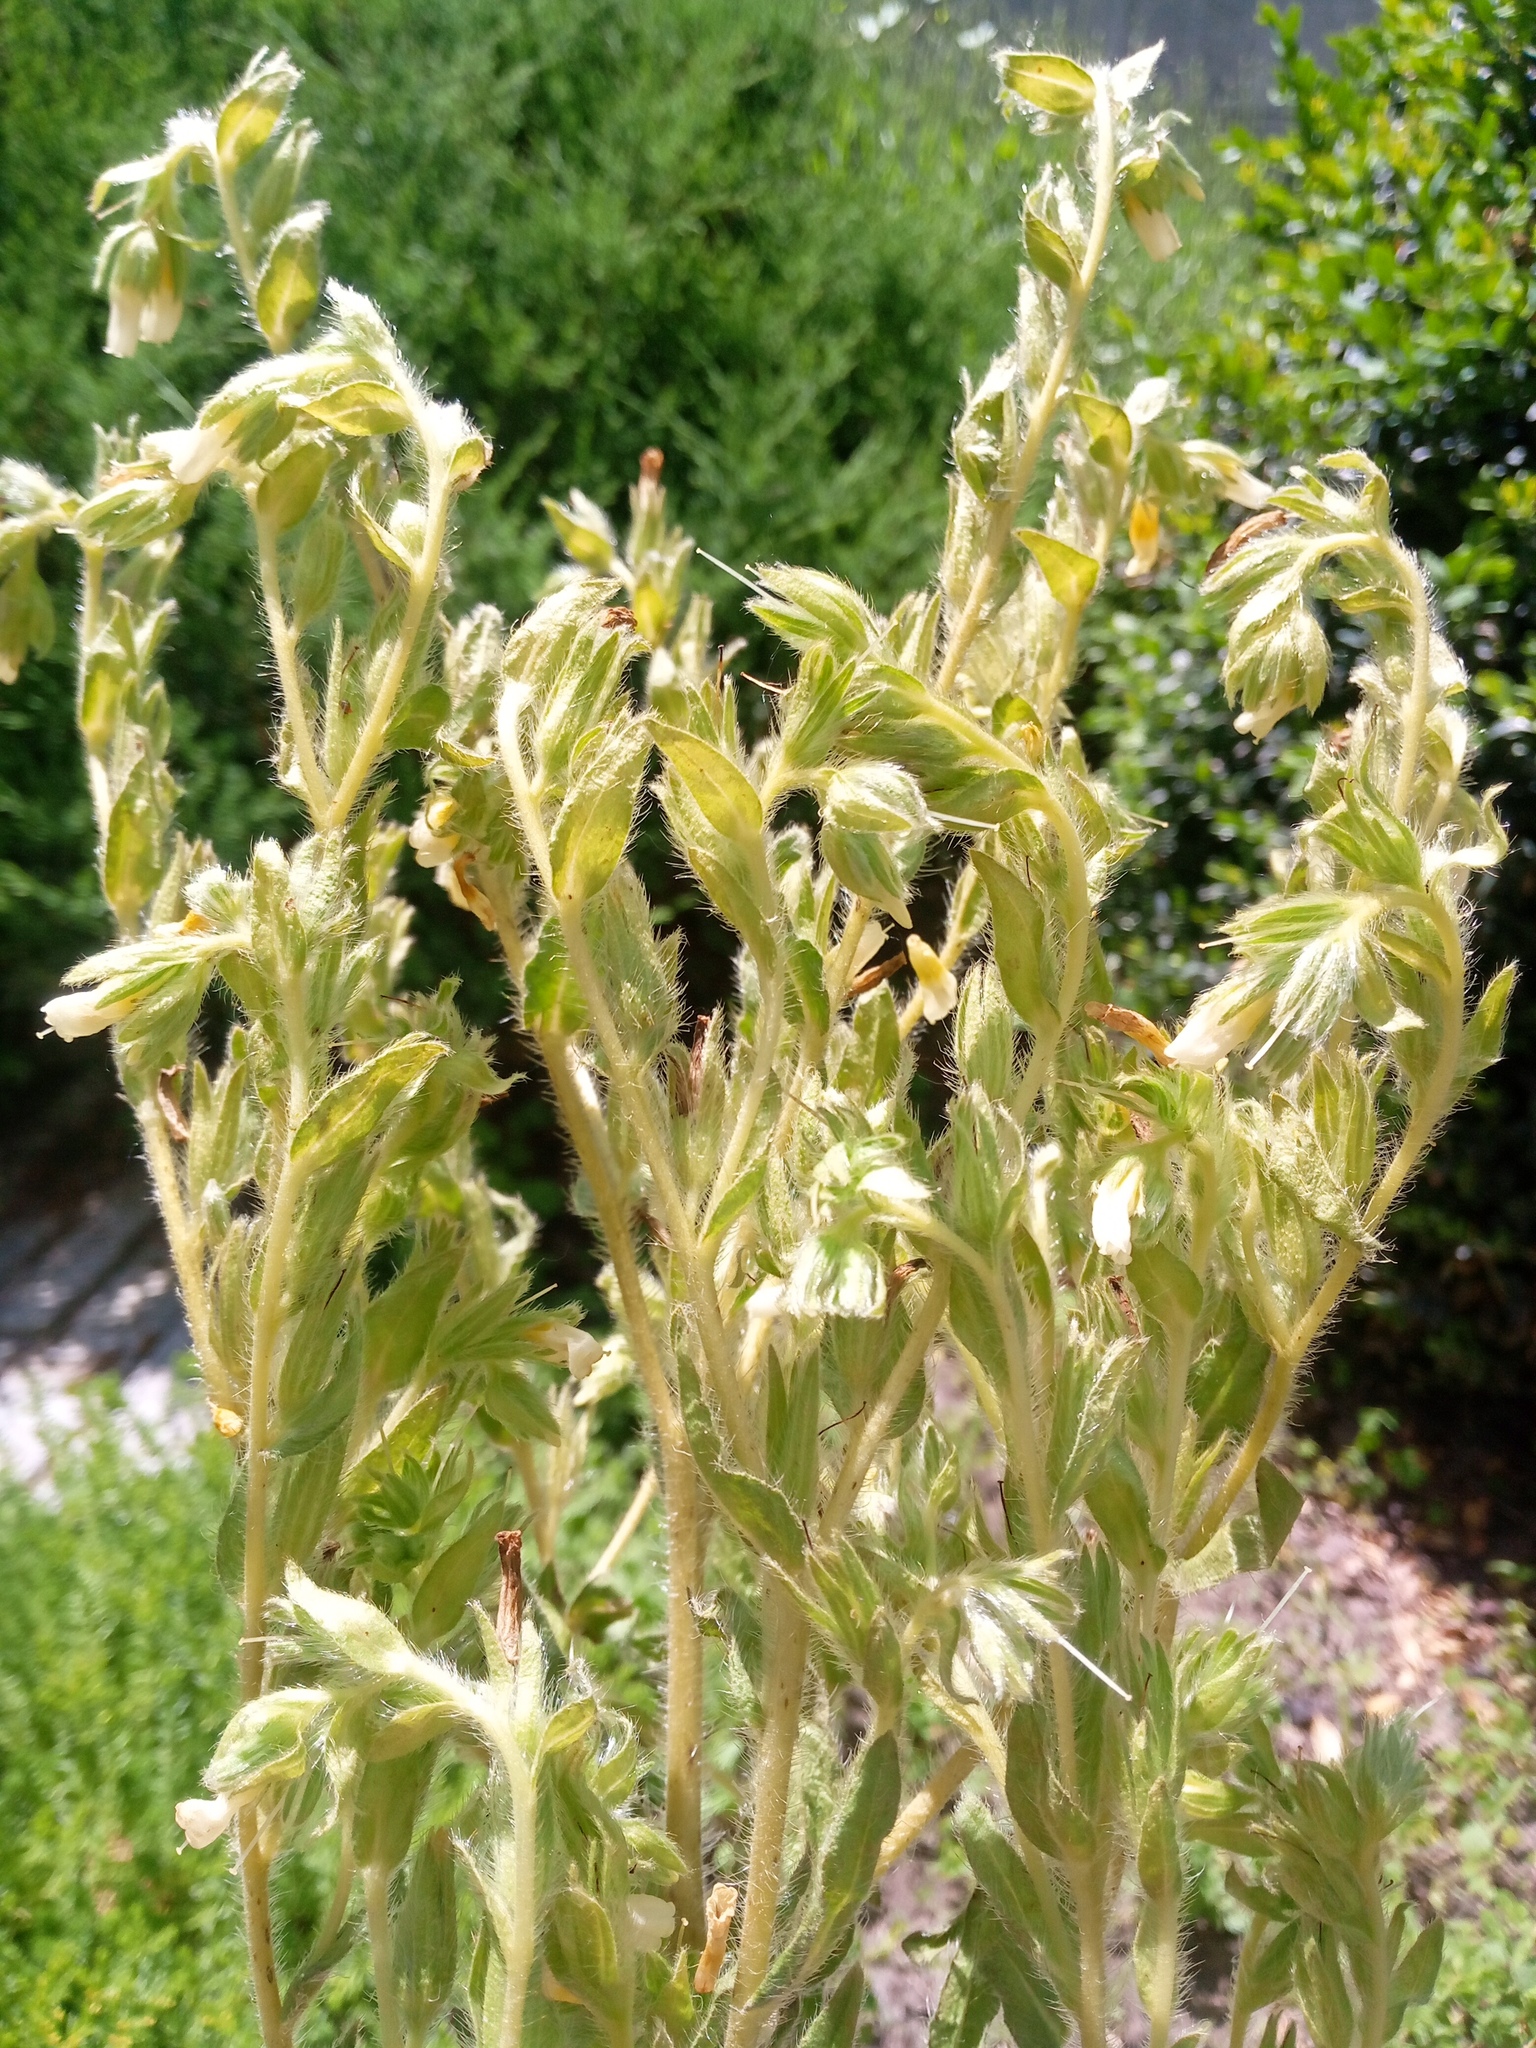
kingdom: Plantae
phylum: Tracheophyta
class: Magnoliopsida
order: Boraginales
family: Boraginaceae
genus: Onosma
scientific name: Onosma tinctoria
